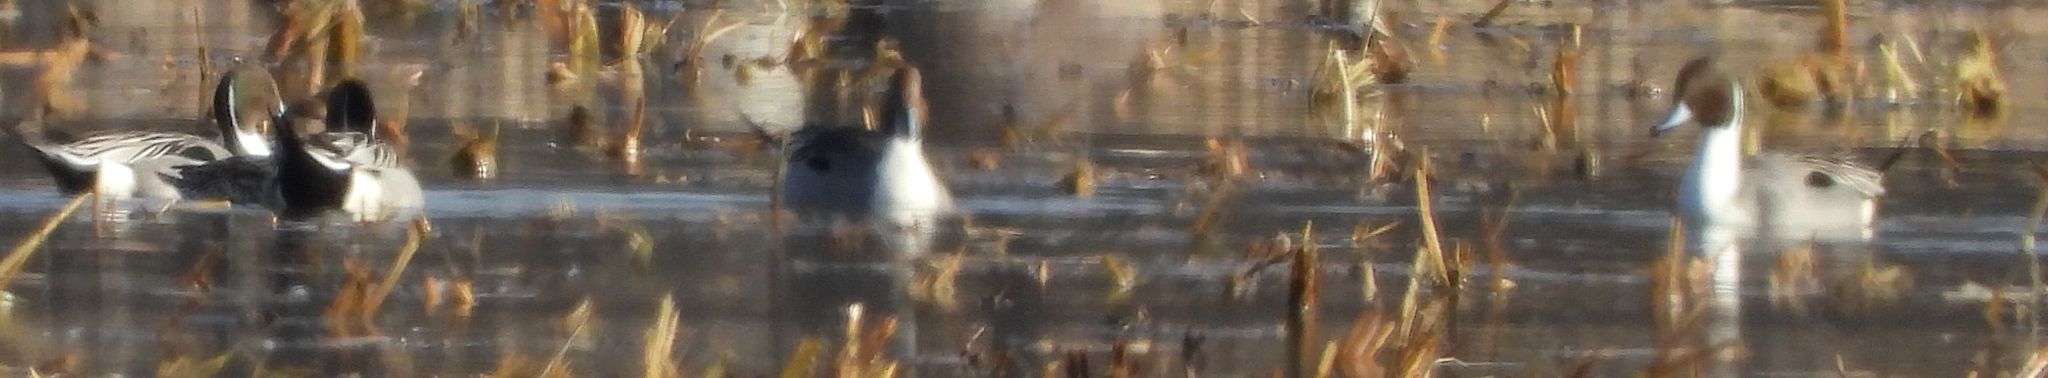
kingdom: Animalia
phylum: Chordata
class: Aves
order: Anseriformes
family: Anatidae
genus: Anas
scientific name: Anas acuta
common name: Northern pintail
